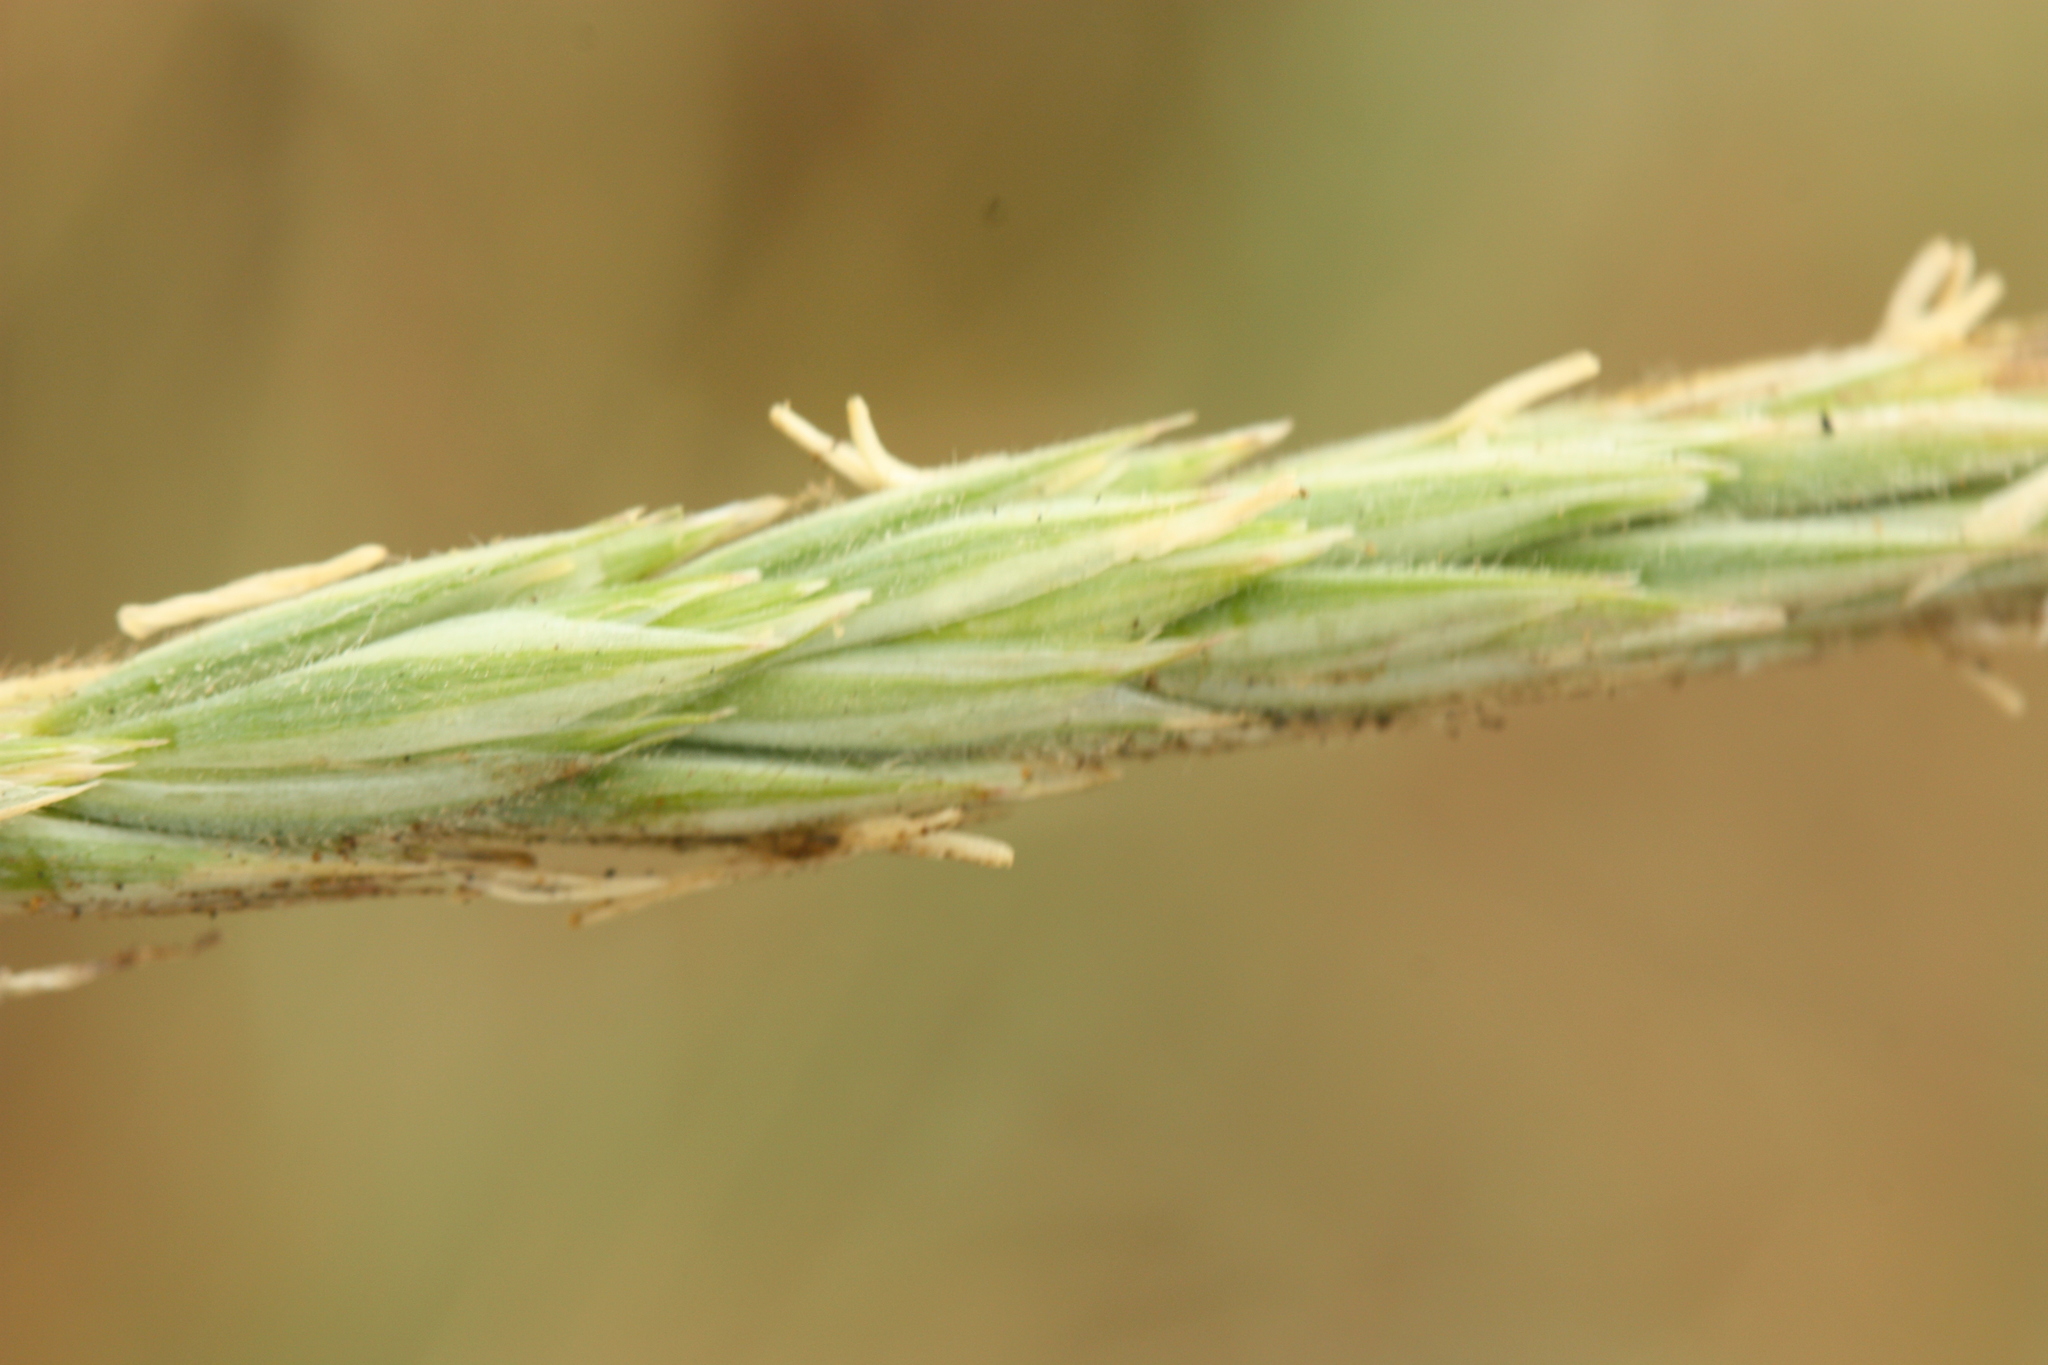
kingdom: Plantae
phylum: Tracheophyta
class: Liliopsida
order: Poales
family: Poaceae
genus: Leymus
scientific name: Leymus mollis
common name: American dune grass
